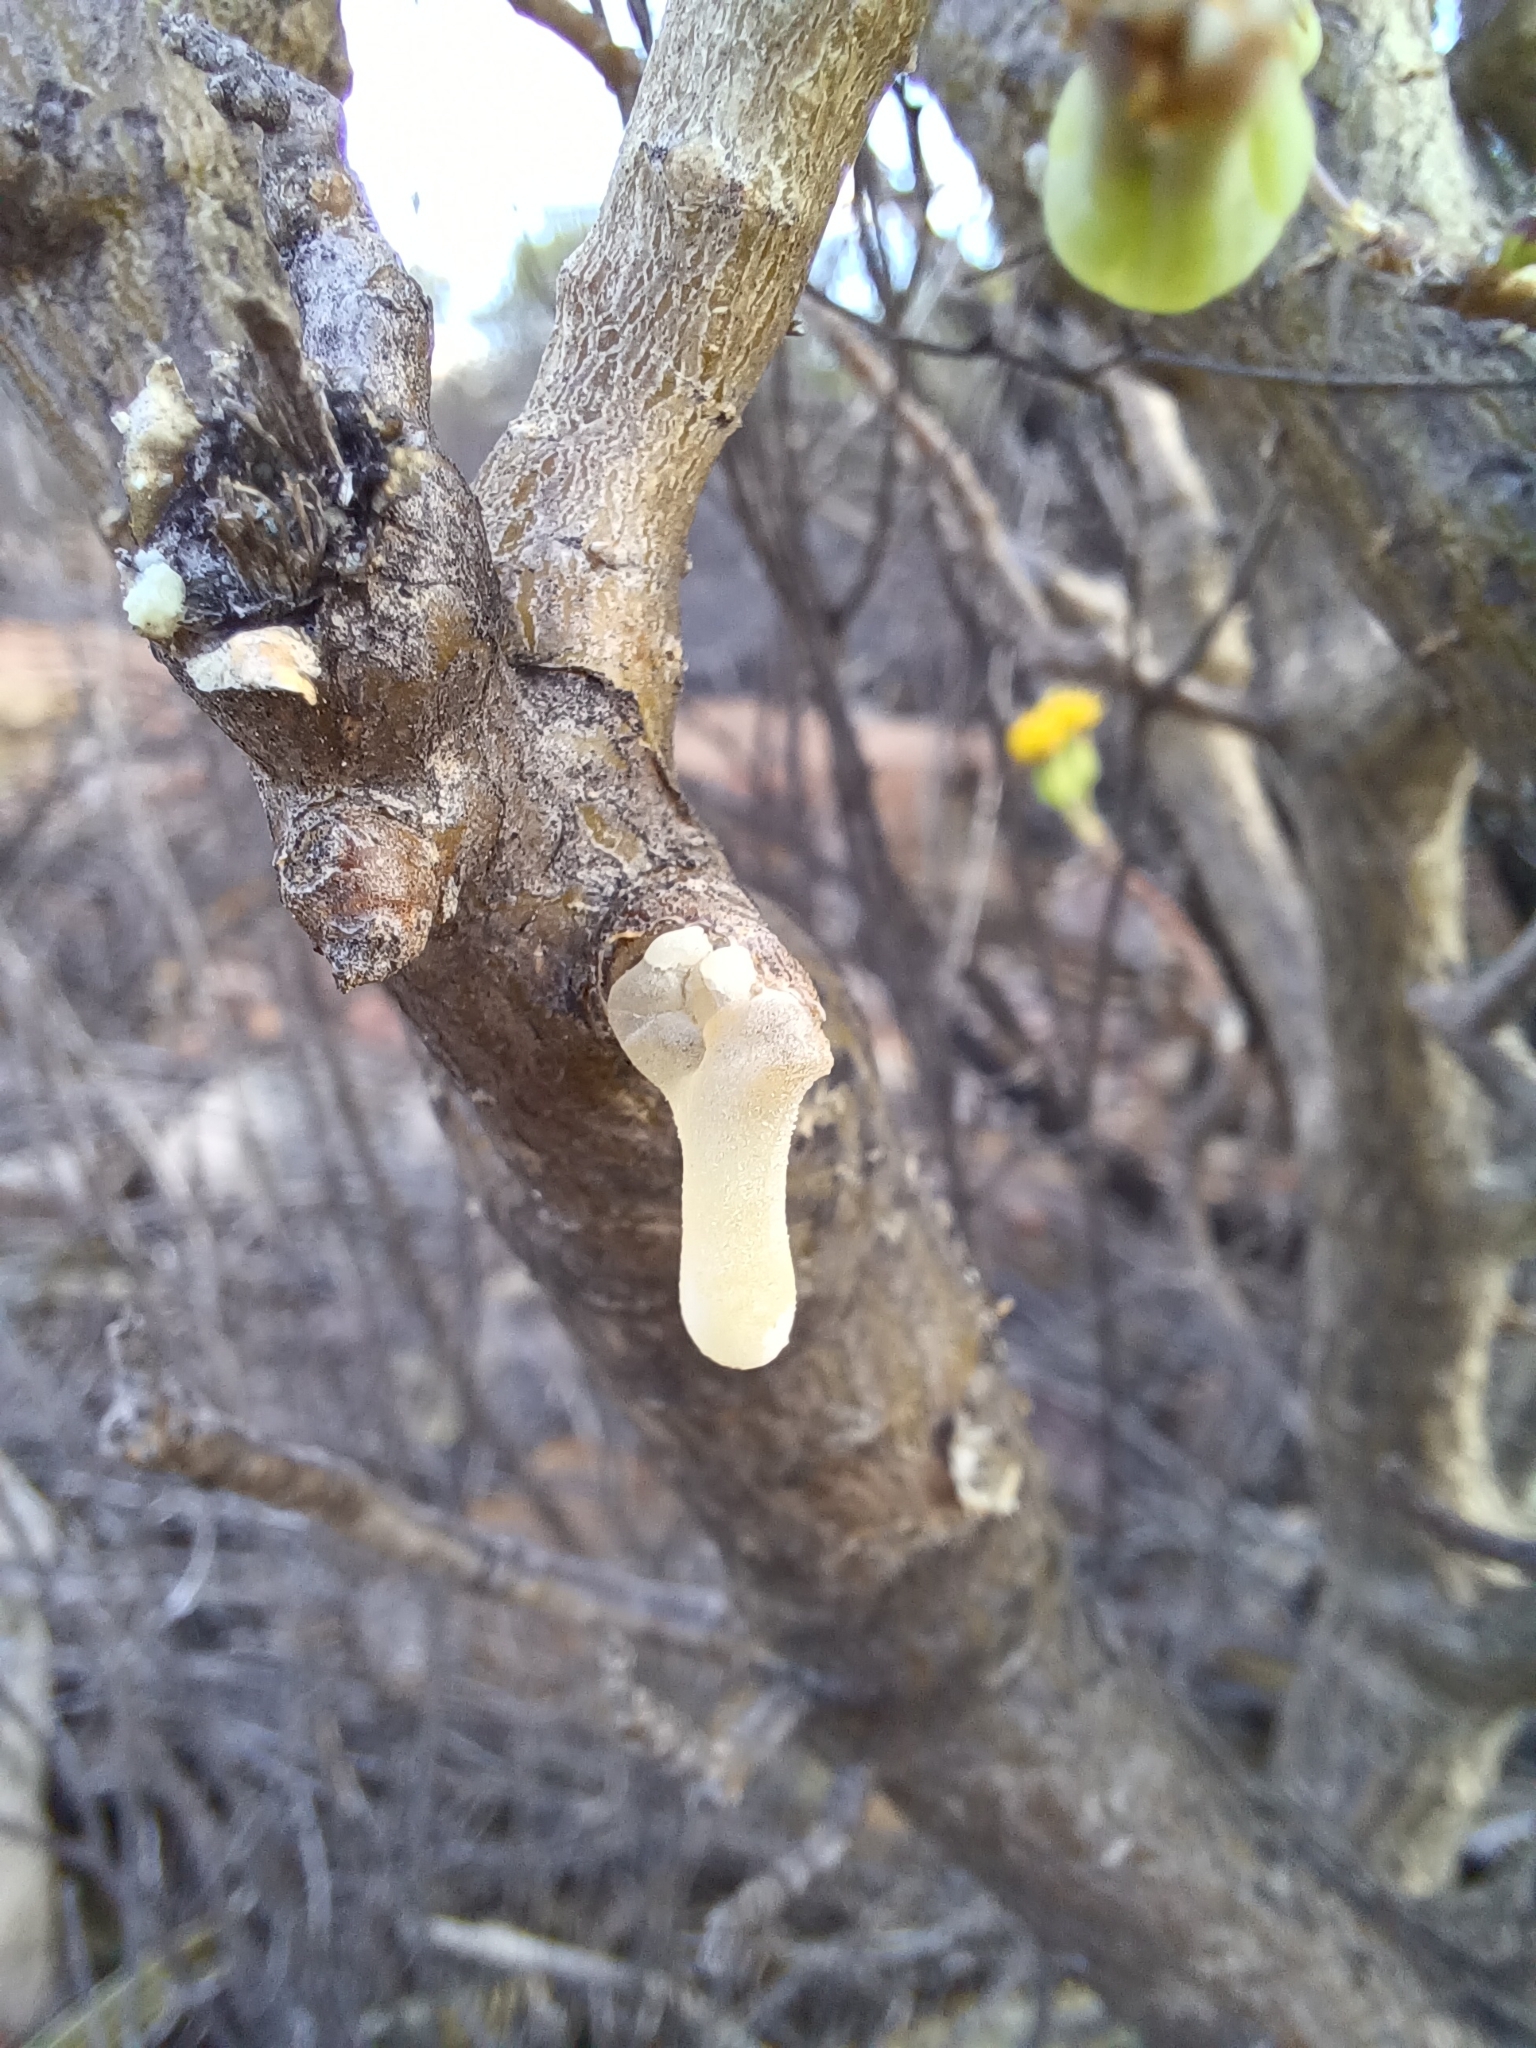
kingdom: Plantae
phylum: Tracheophyta
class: Magnoliopsida
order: Asterales
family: Asteraceae
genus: Othonna
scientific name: Othonna arbuscula
